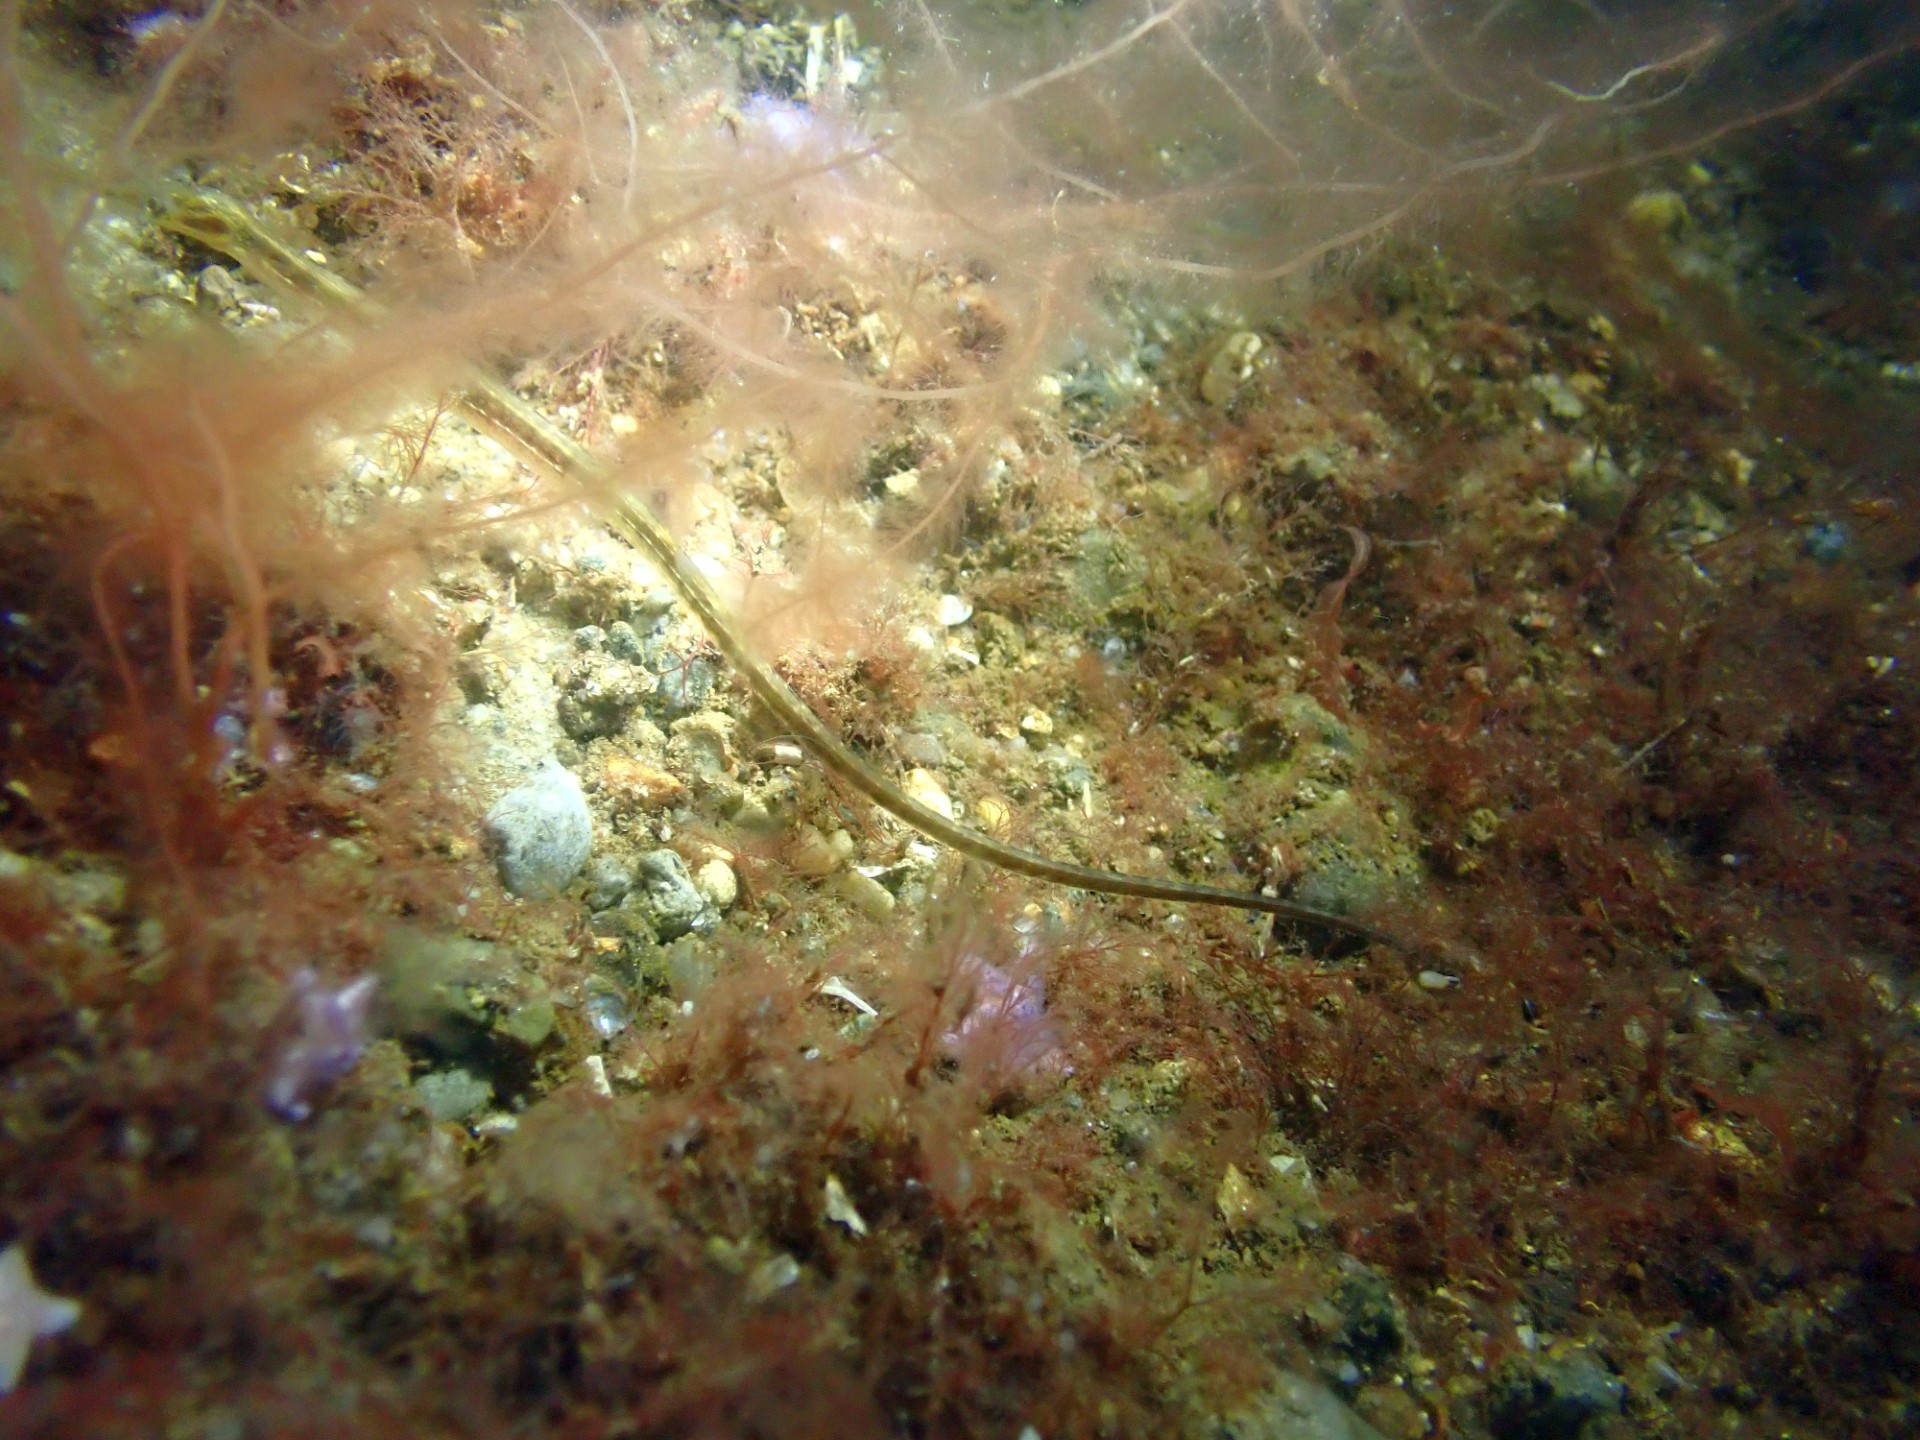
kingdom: Animalia
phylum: Chordata
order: Syngnathiformes
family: Syngnathidae
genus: Syngnathus
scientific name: Syngnathus rostellatus
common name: Nilsson's pipefish
